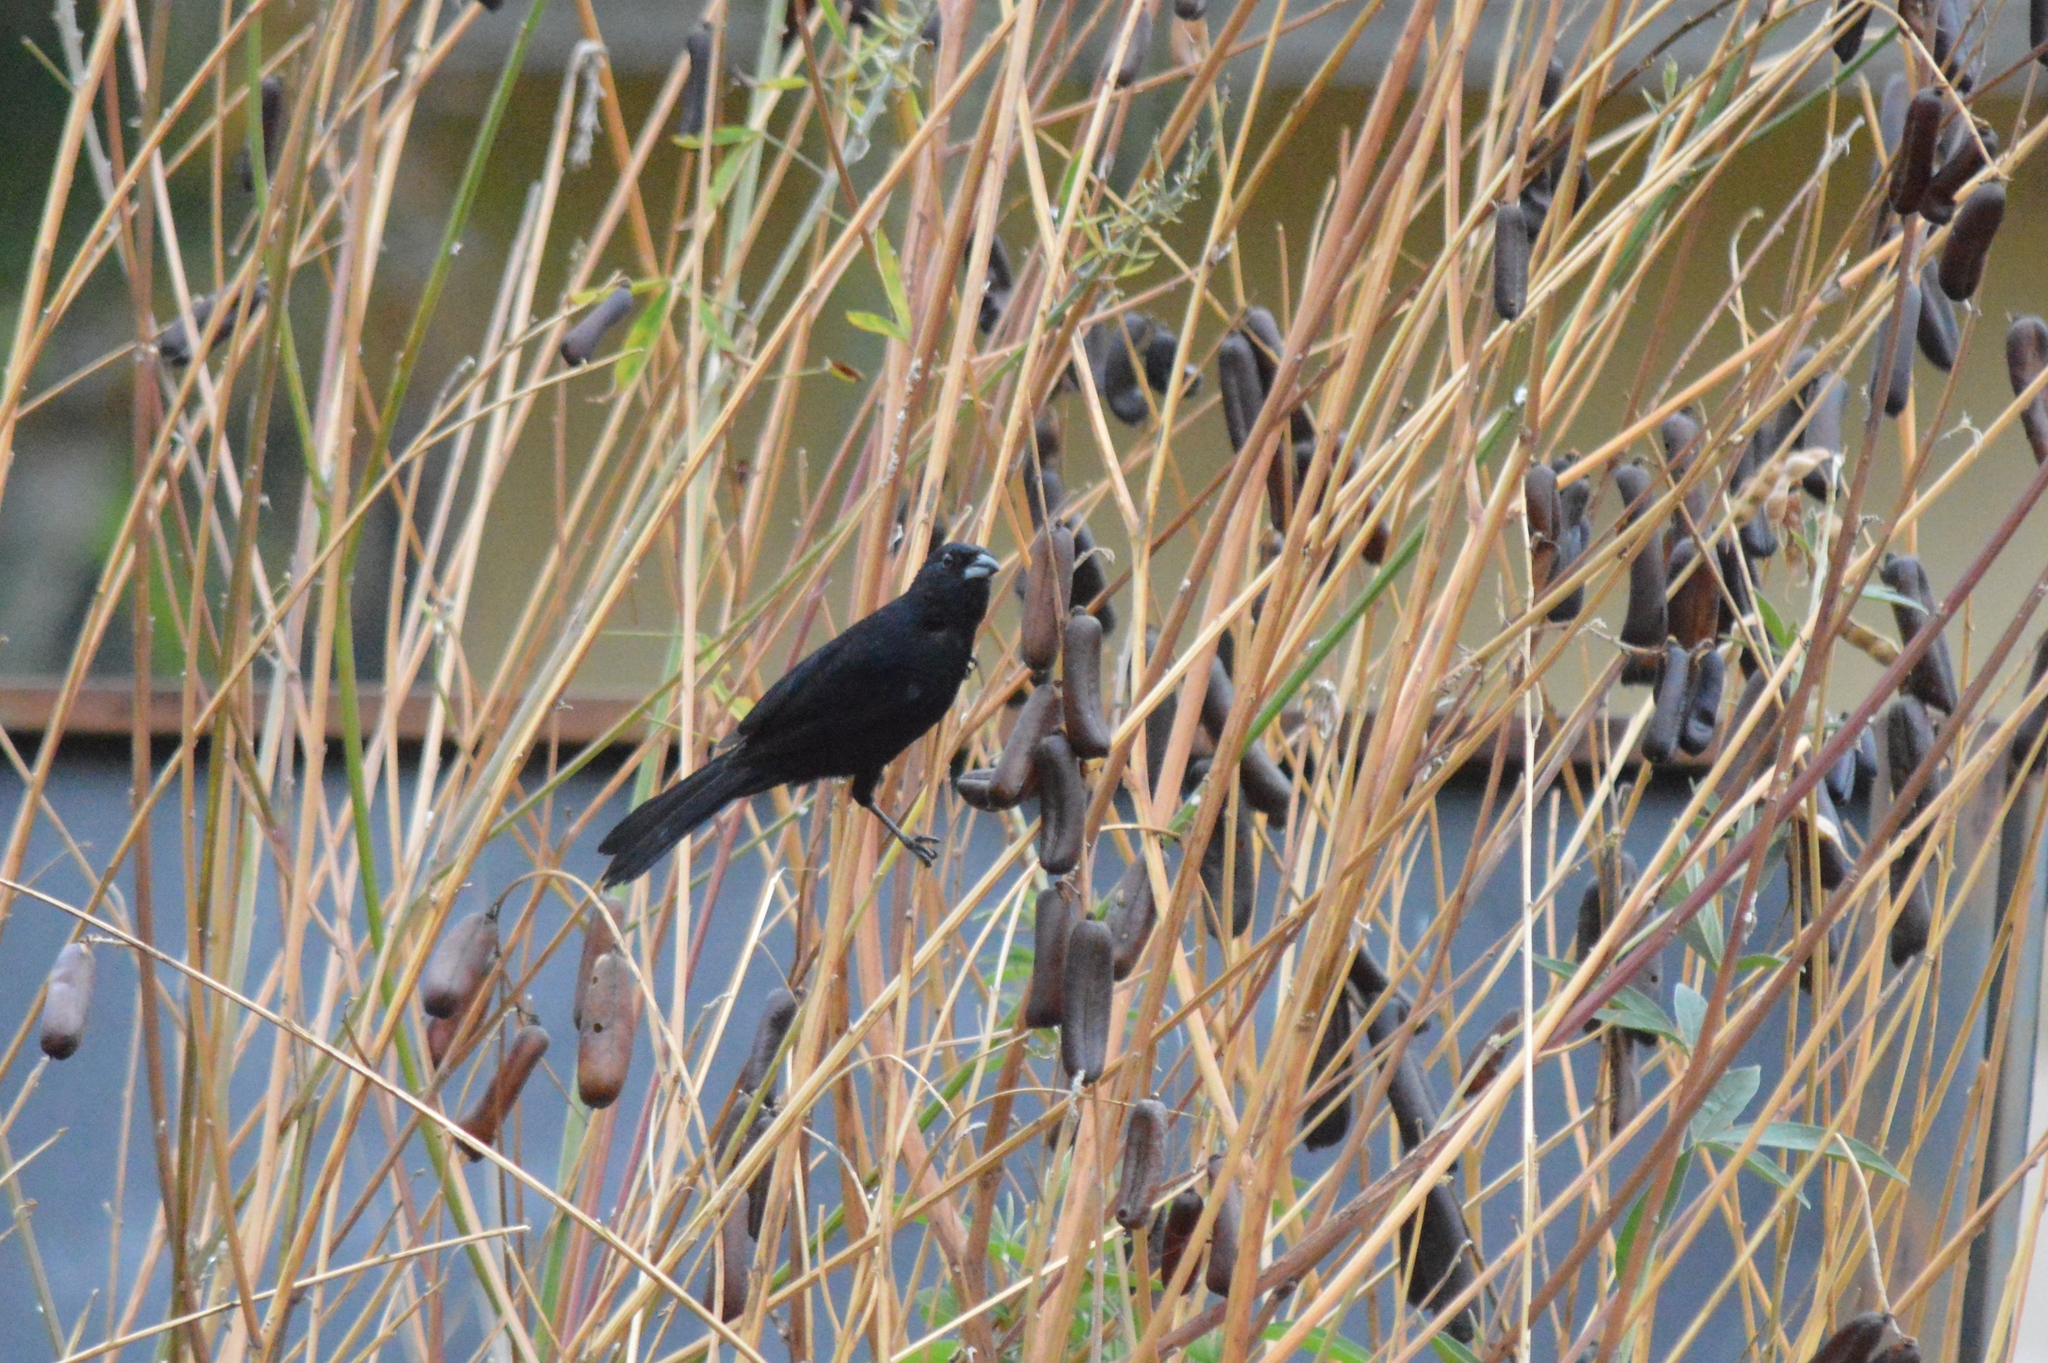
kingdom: Animalia
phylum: Chordata
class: Aves
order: Passeriformes
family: Thraupidae
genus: Tachyphonus
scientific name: Tachyphonus rufus
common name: White-lined tanager
